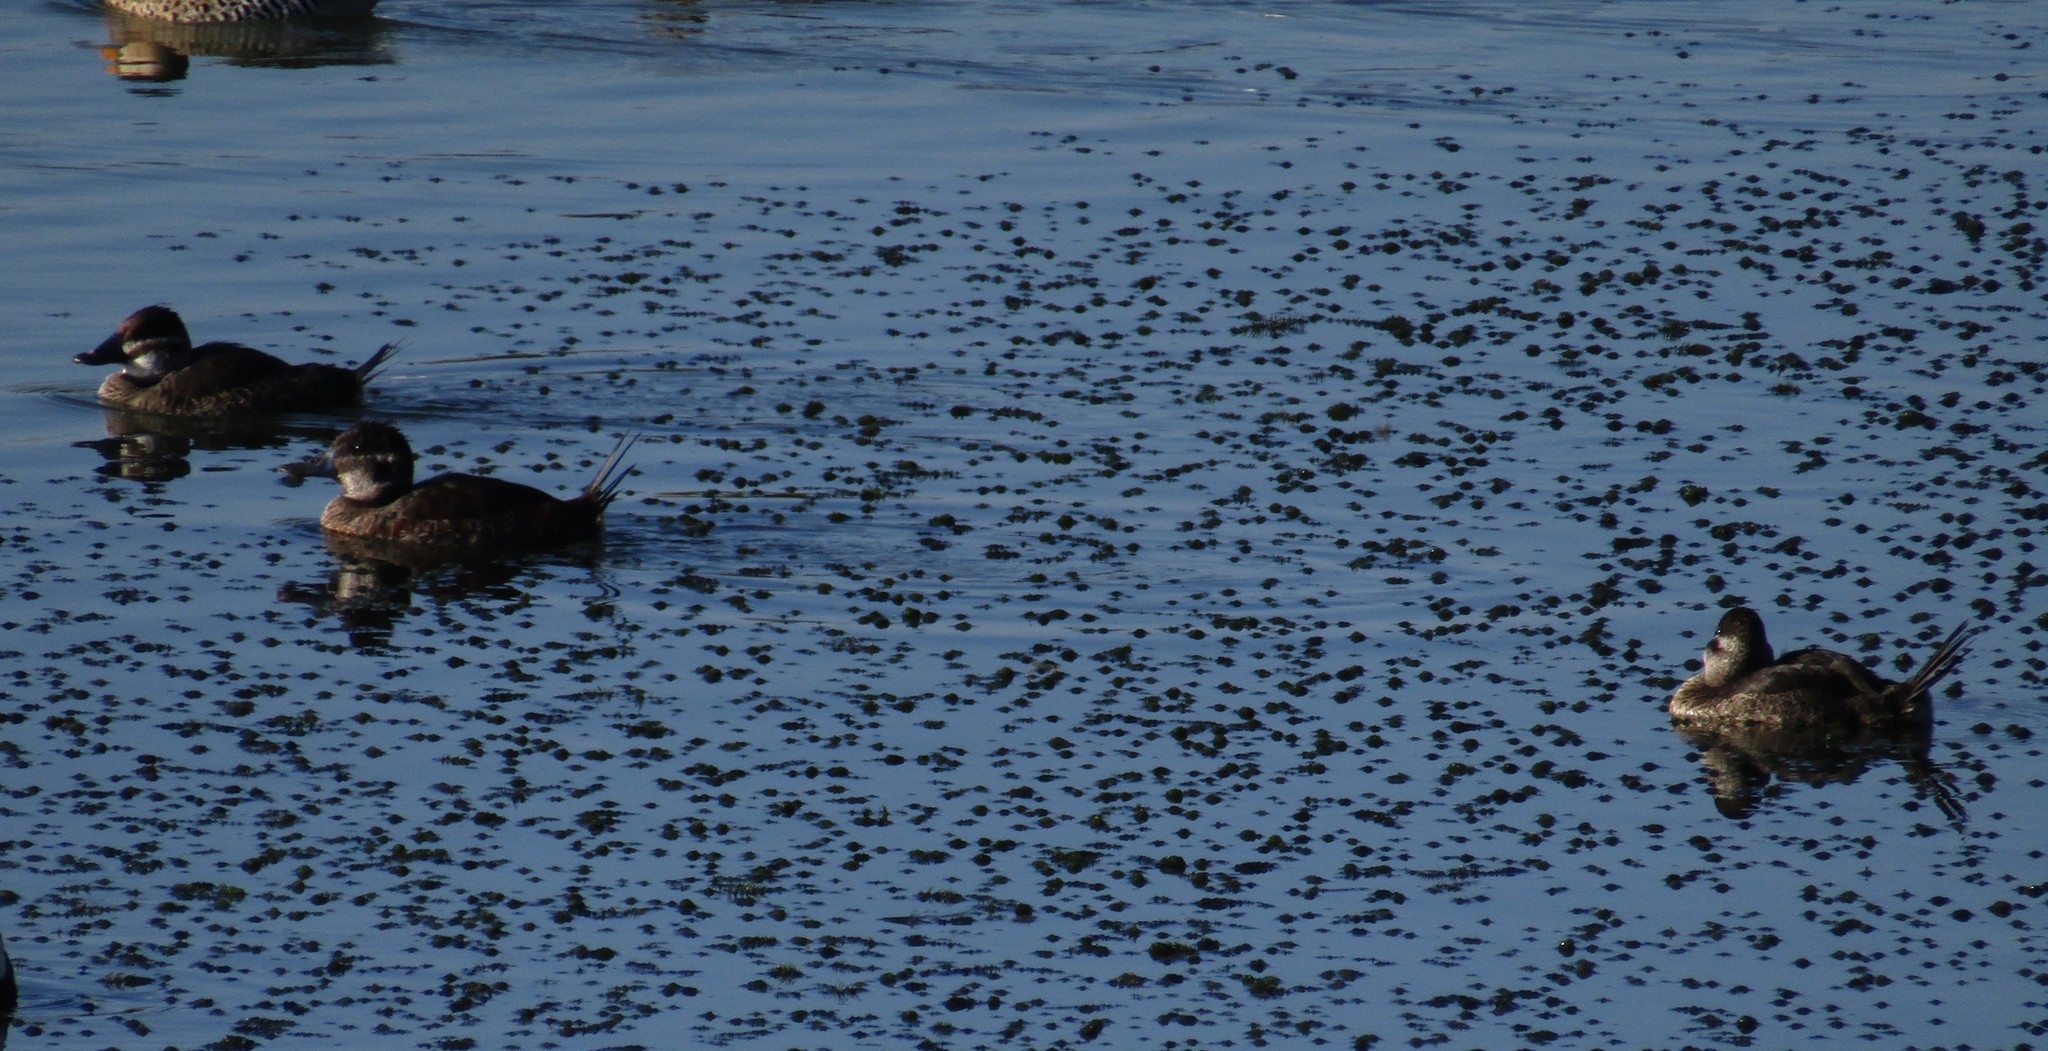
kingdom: Animalia
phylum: Chordata
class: Aves
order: Anseriformes
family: Anatidae
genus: Oxyura
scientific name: Oxyura vittata
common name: Lake duck
